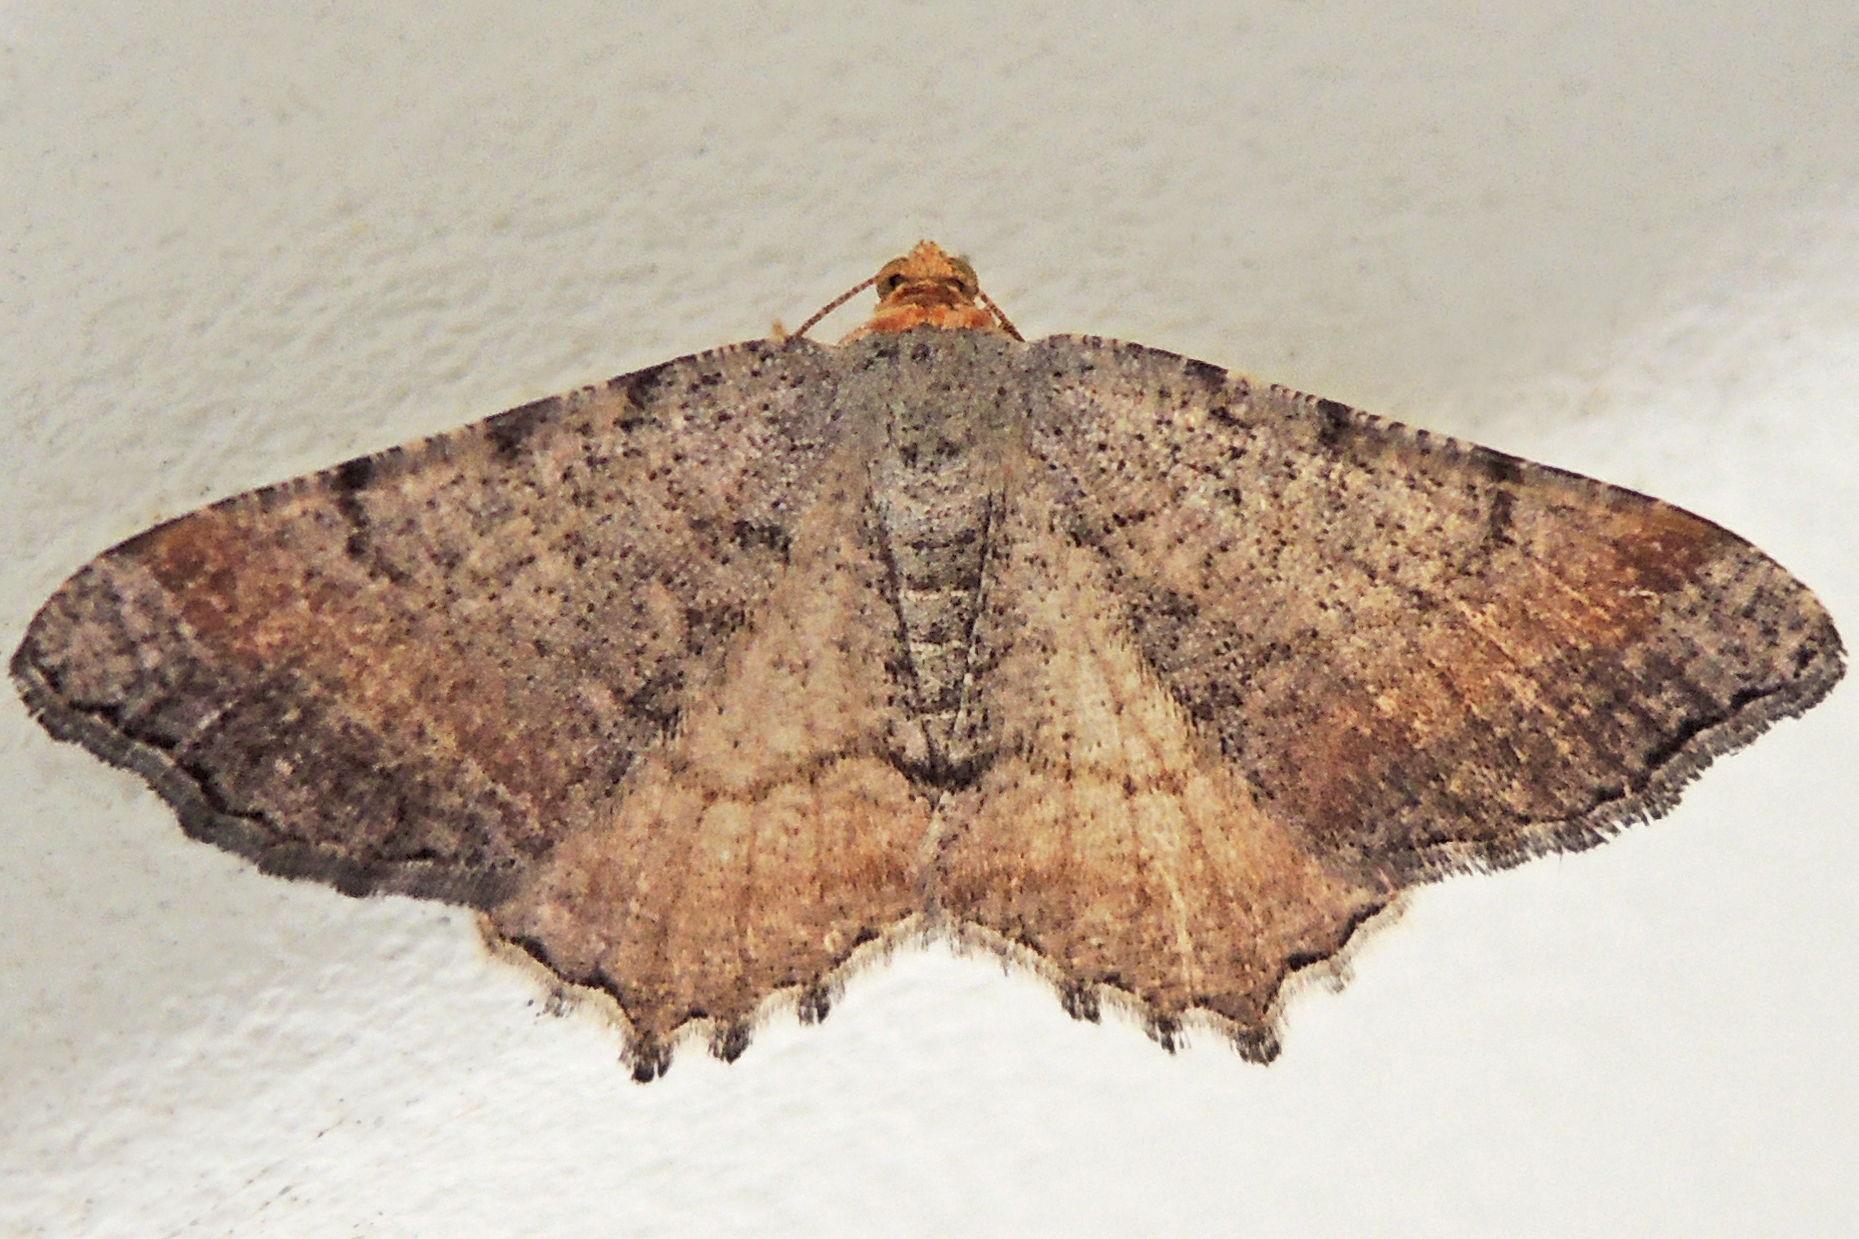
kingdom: Animalia
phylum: Arthropoda
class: Insecta
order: Lepidoptera
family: Geometridae
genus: Macaria
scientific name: Macaria minorata
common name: Minor angle moth
